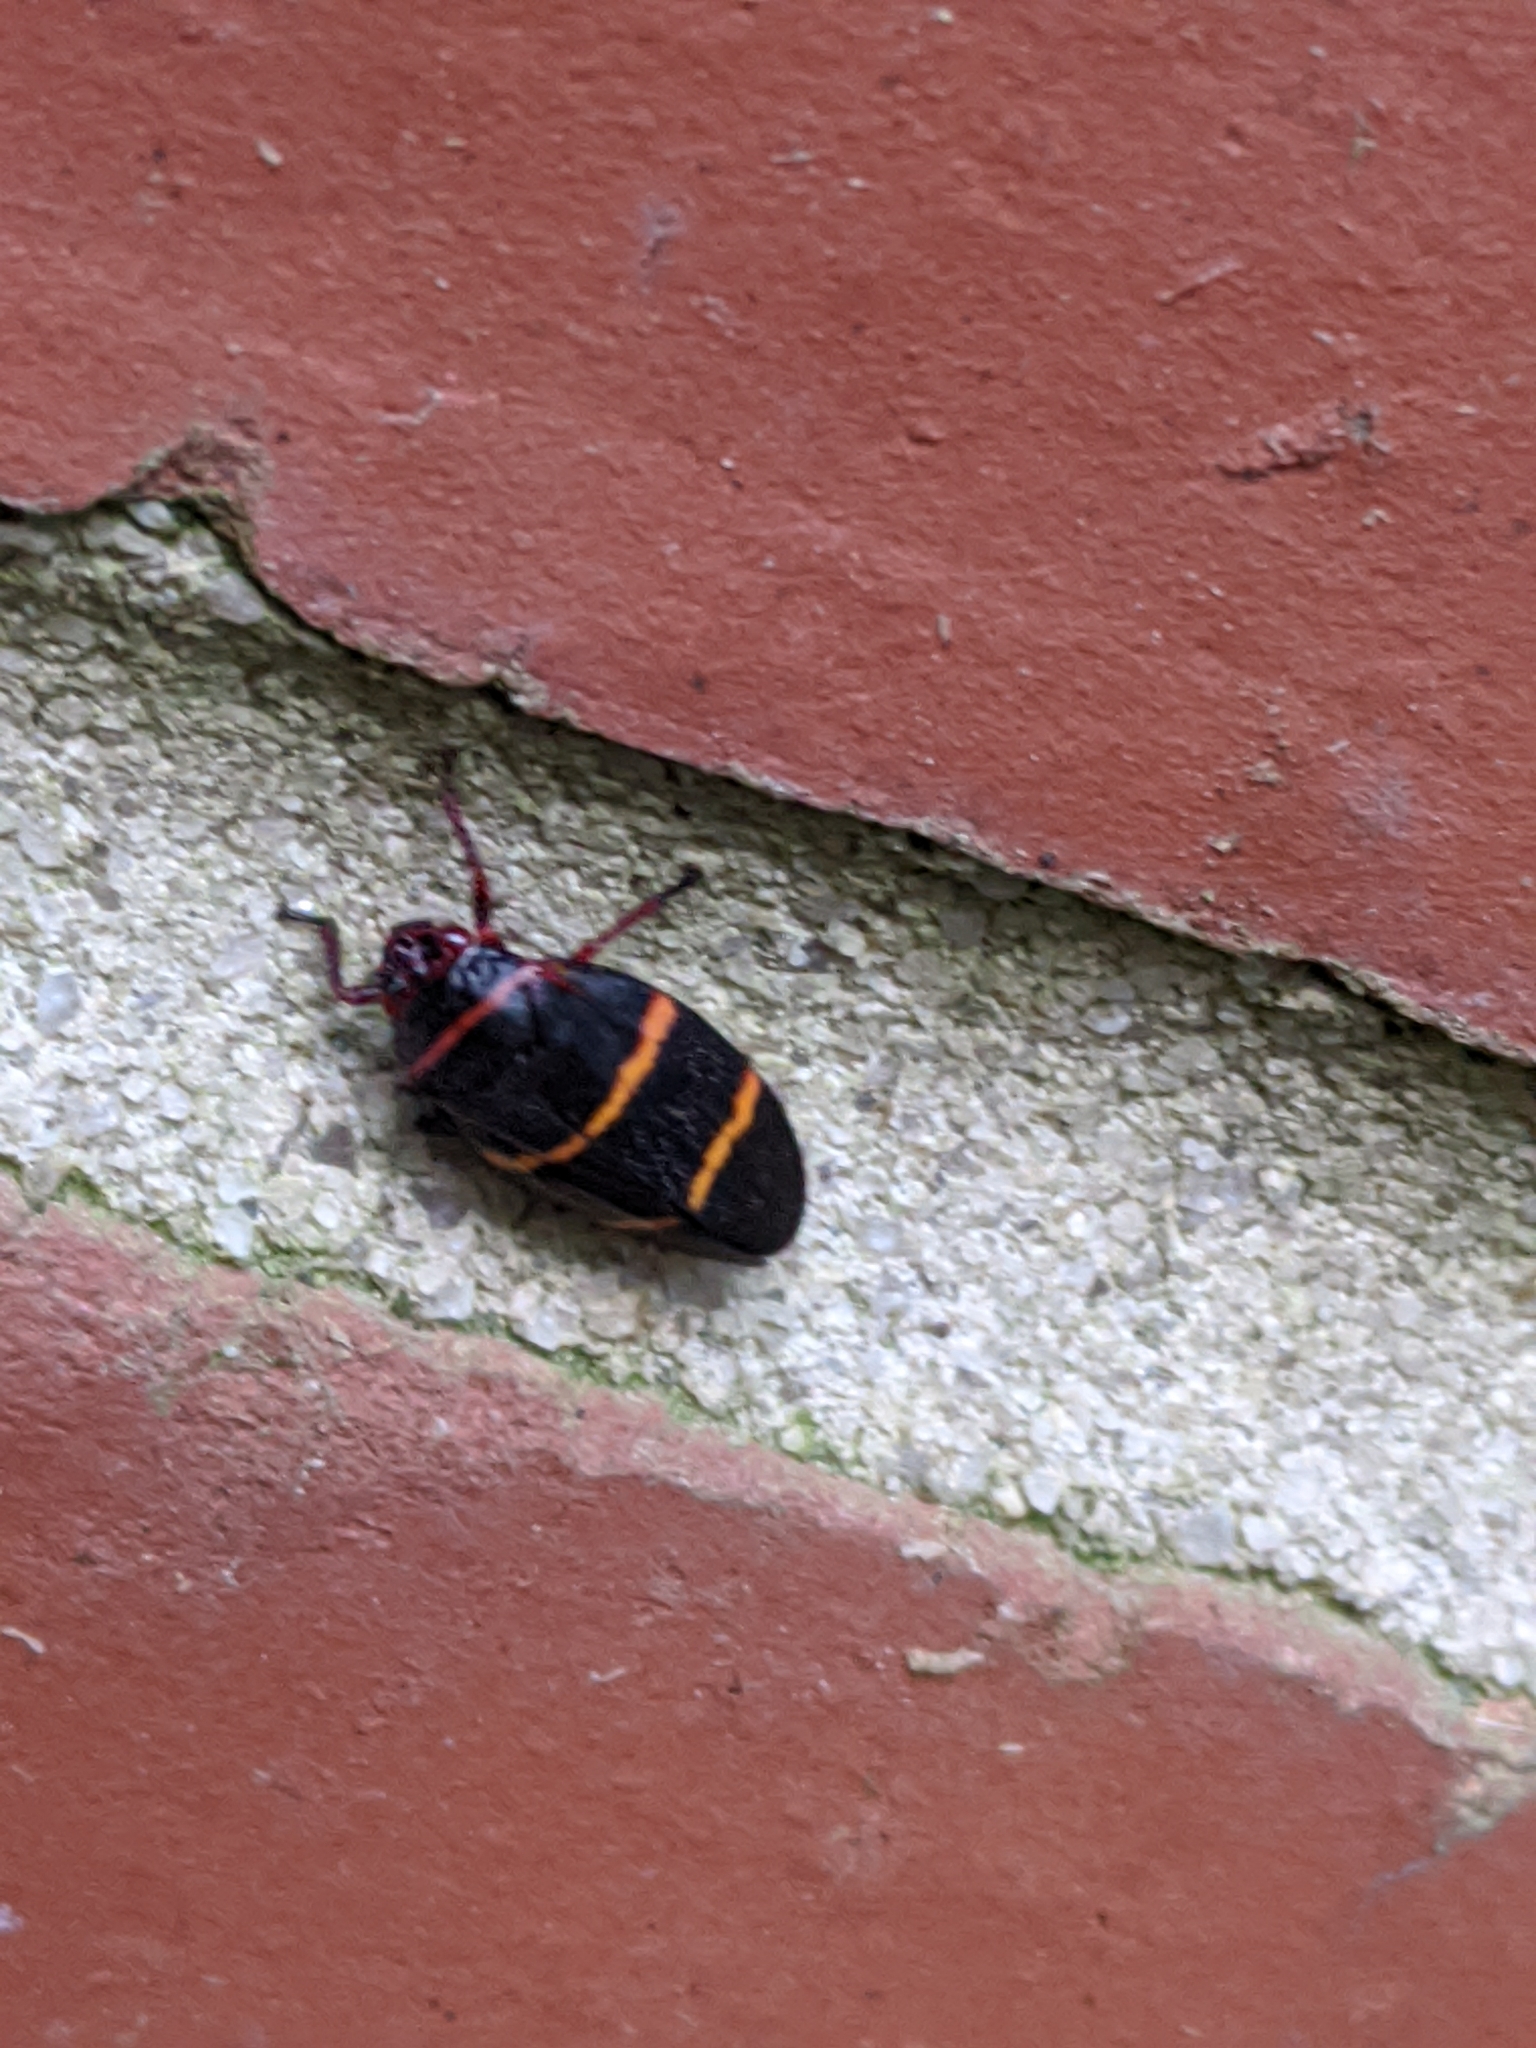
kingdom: Animalia
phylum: Arthropoda
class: Insecta
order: Hemiptera
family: Cercopidae
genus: Prosapia
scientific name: Prosapia bicincta
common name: Twolined spittlebug
